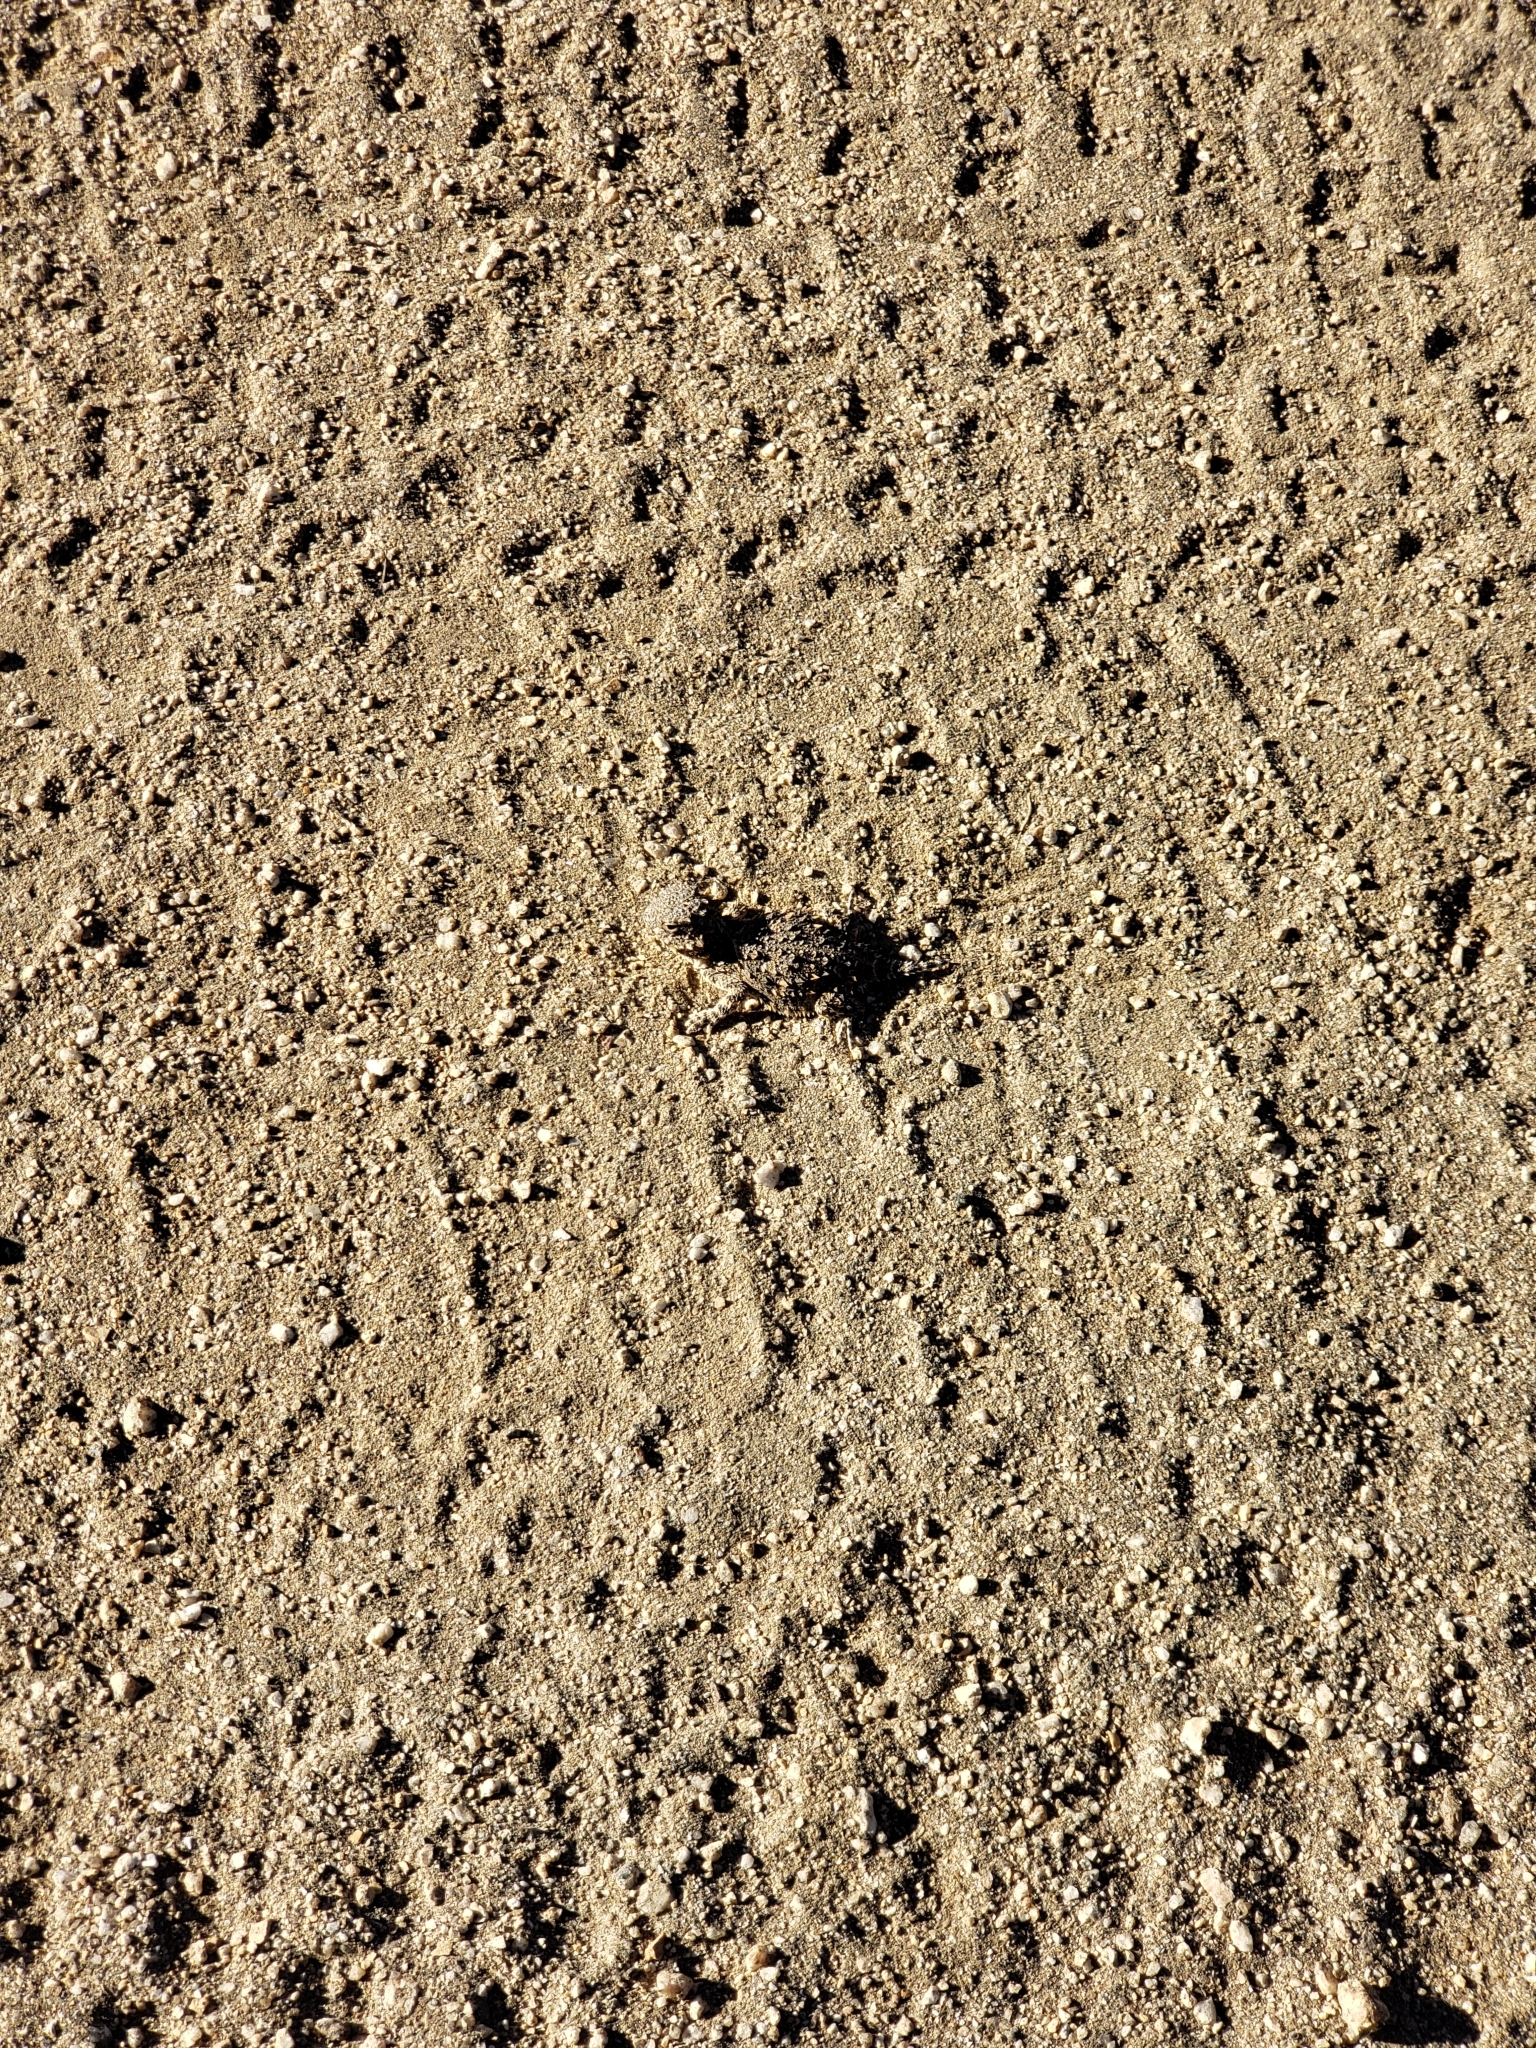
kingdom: Animalia
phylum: Chordata
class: Squamata
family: Phrynosomatidae
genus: Phrynosoma
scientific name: Phrynosoma blainvillii
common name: San diego horned lizard
